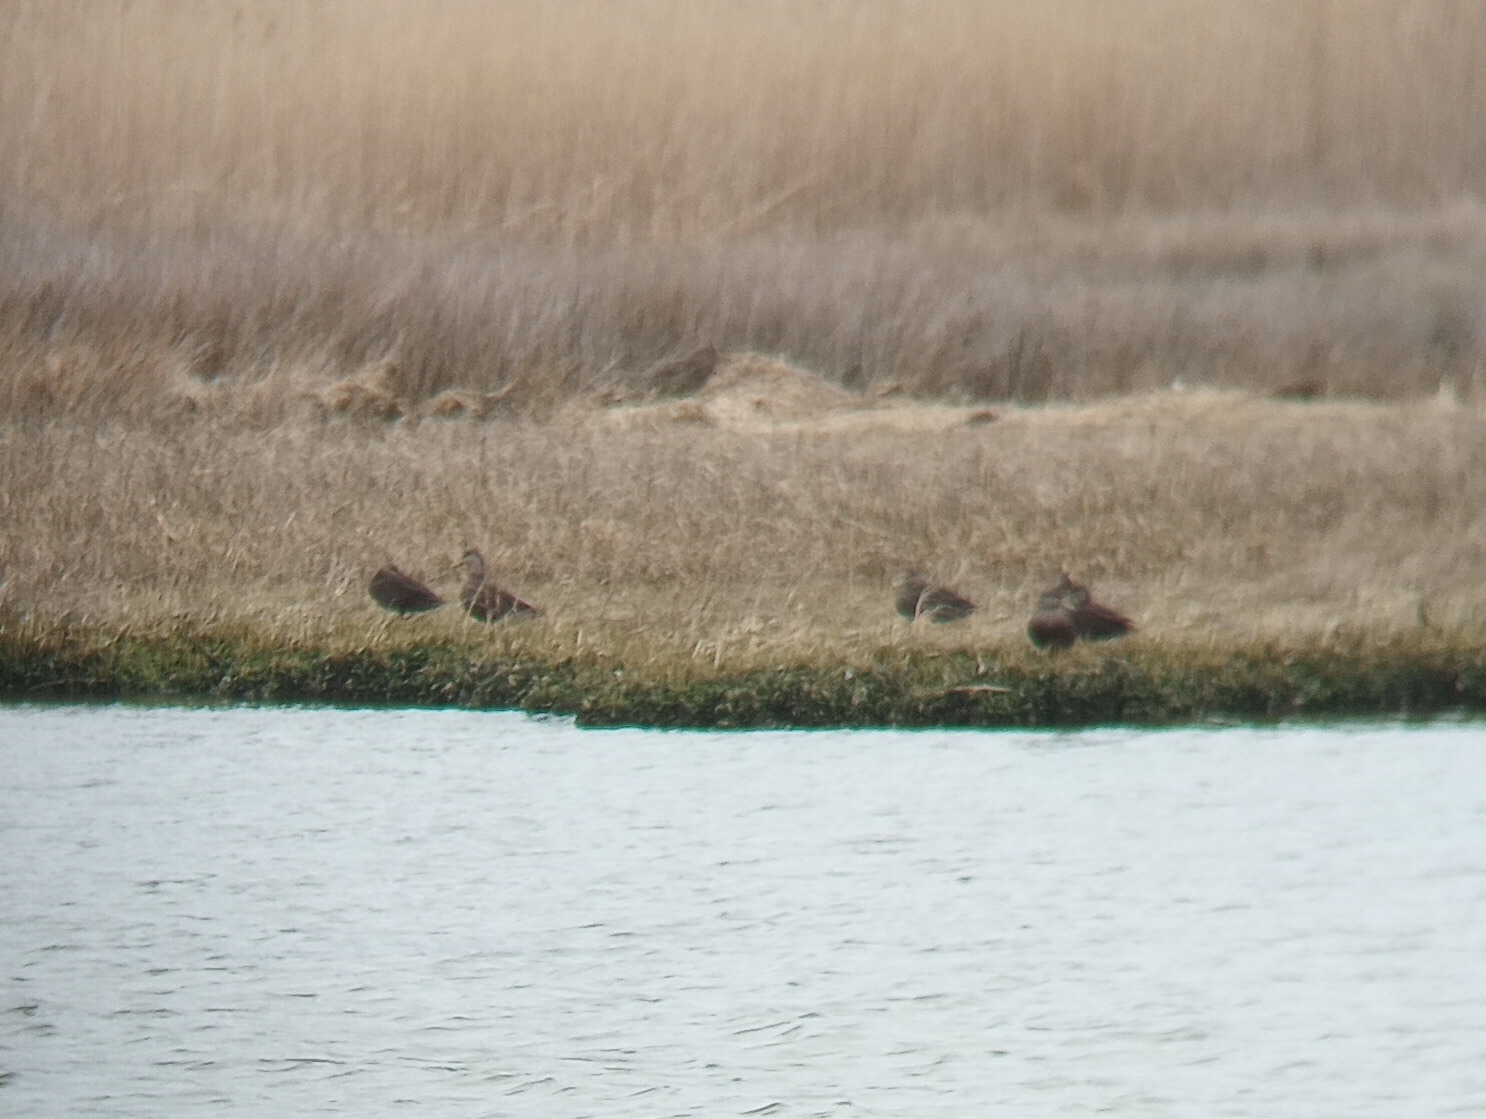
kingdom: Animalia
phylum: Chordata
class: Aves
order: Anseriformes
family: Anatidae
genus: Anas
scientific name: Anas rubripes
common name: American black duck
